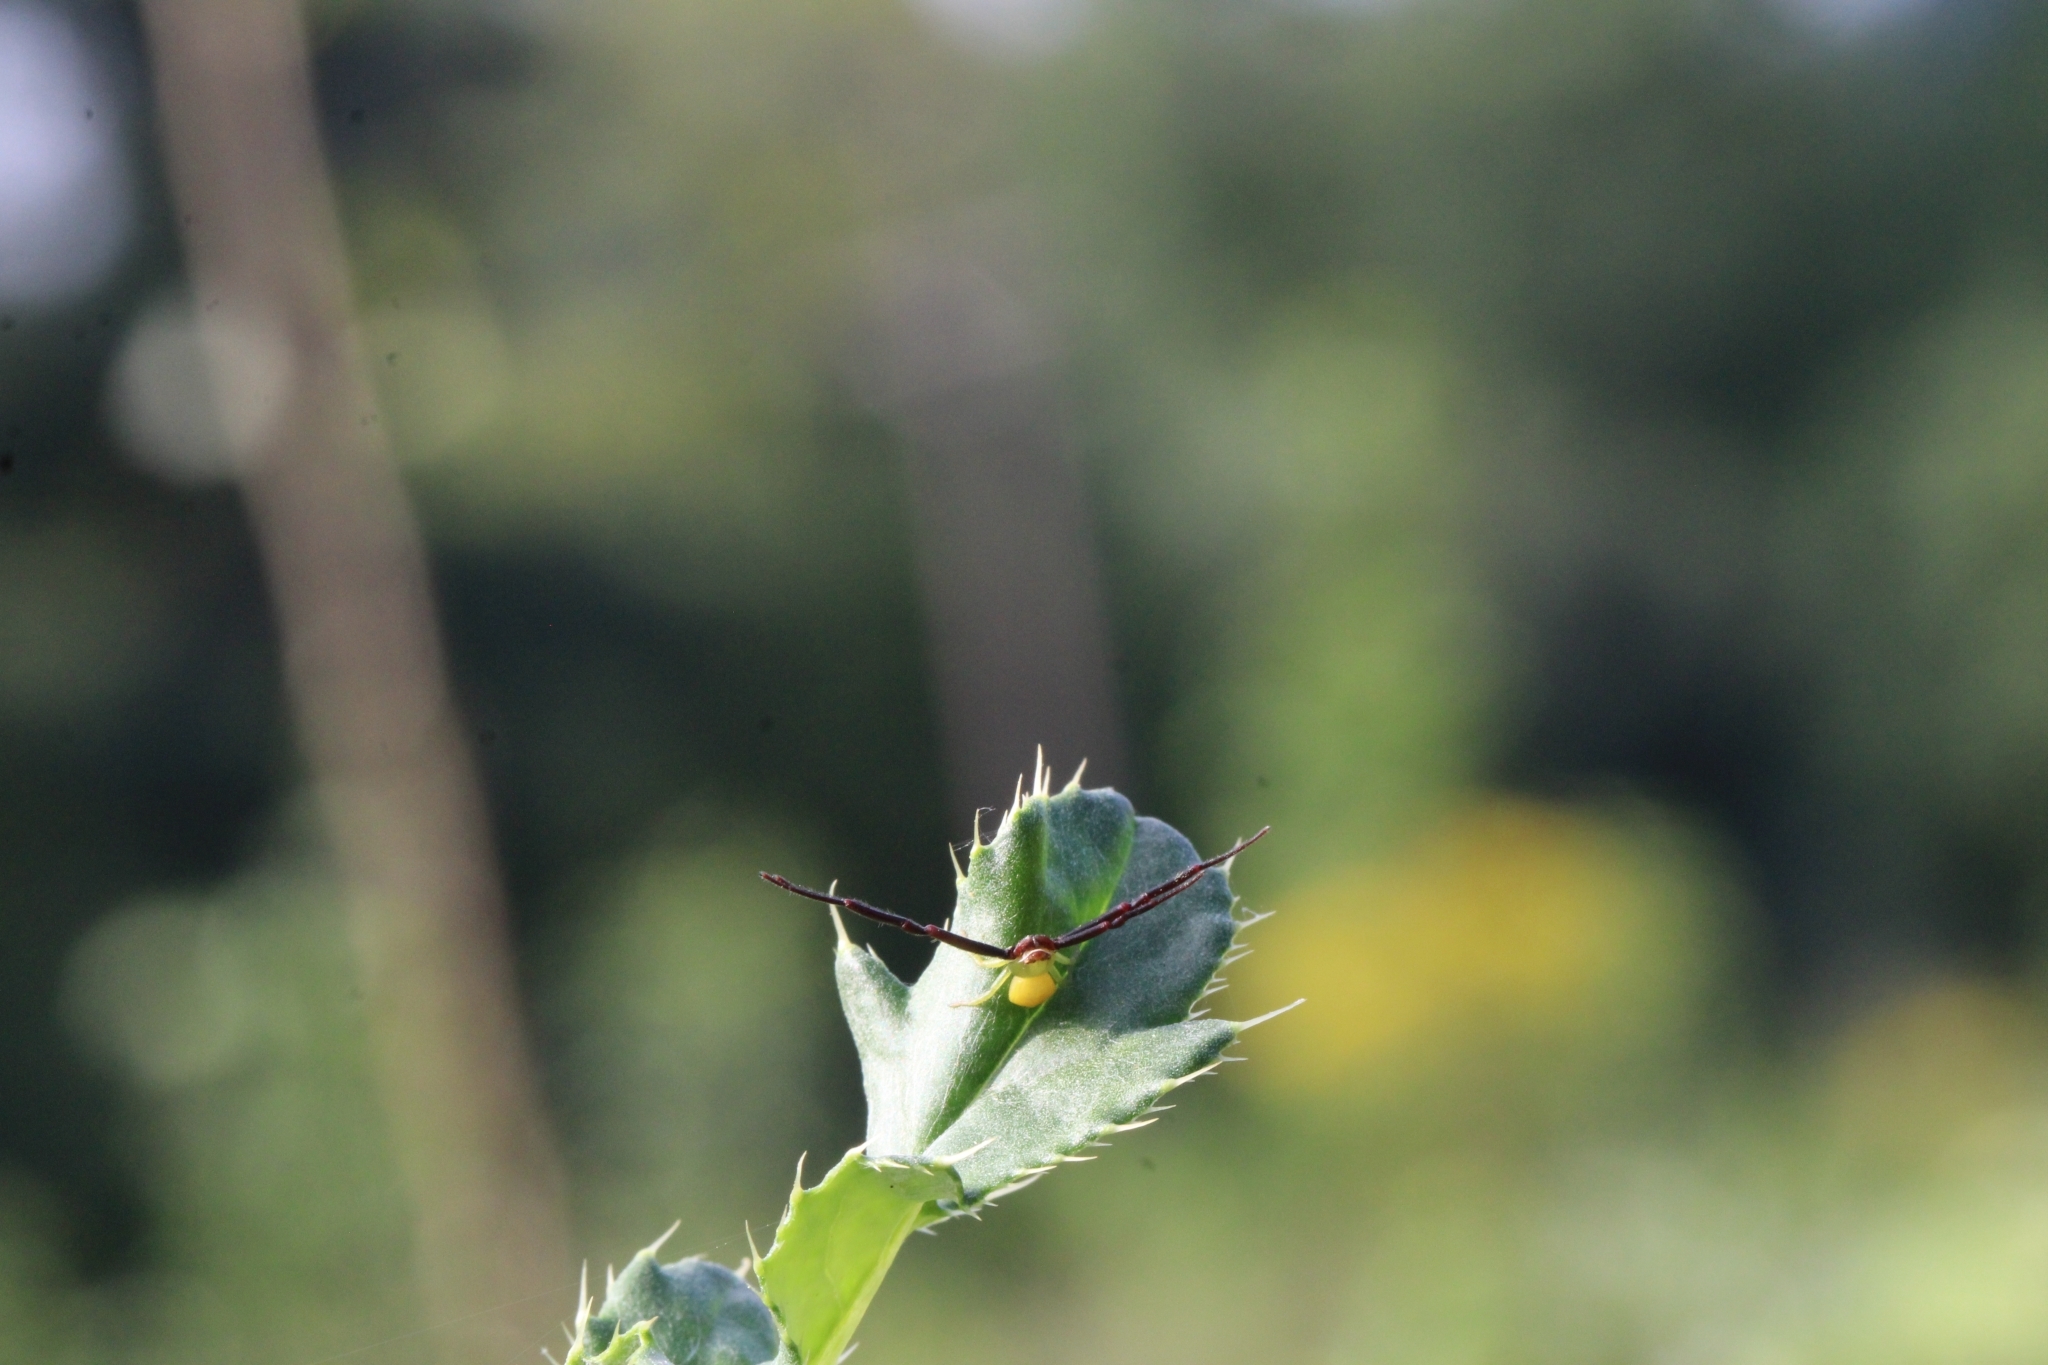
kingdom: Animalia
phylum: Arthropoda
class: Arachnida
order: Araneae
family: Thomisidae
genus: Misumenoides
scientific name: Misumenoides formosipes
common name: White-banded crab spider
